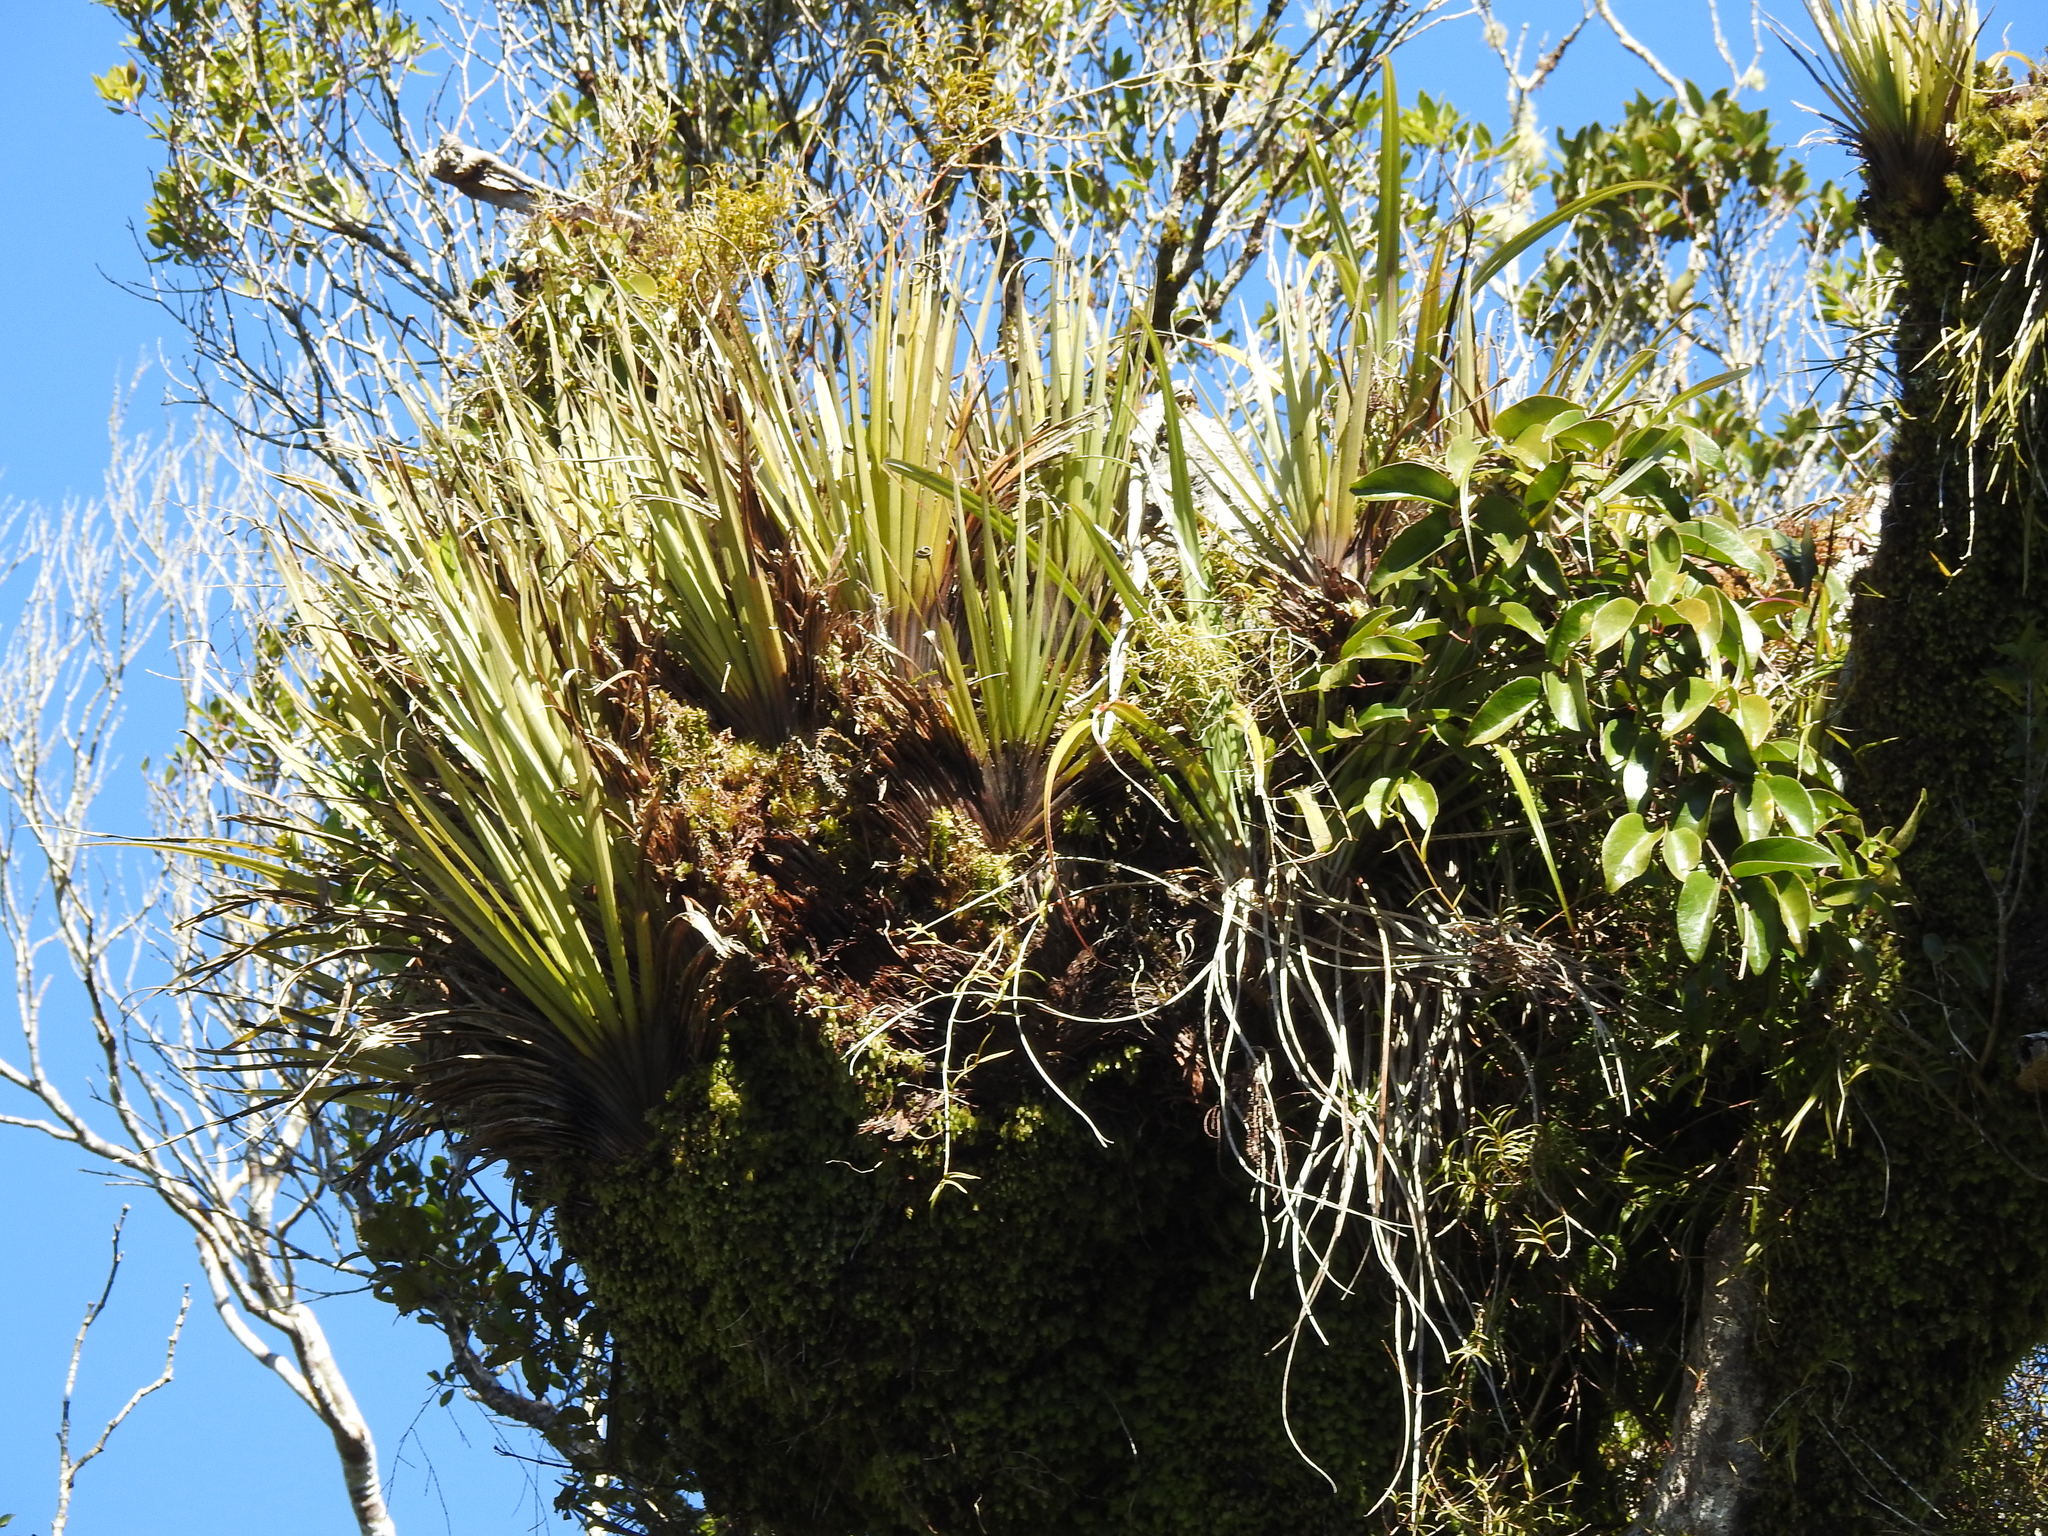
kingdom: Plantae
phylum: Tracheophyta
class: Magnoliopsida
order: Ranunculales
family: Ranunculaceae
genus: Clematis
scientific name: Clematis paniculata
